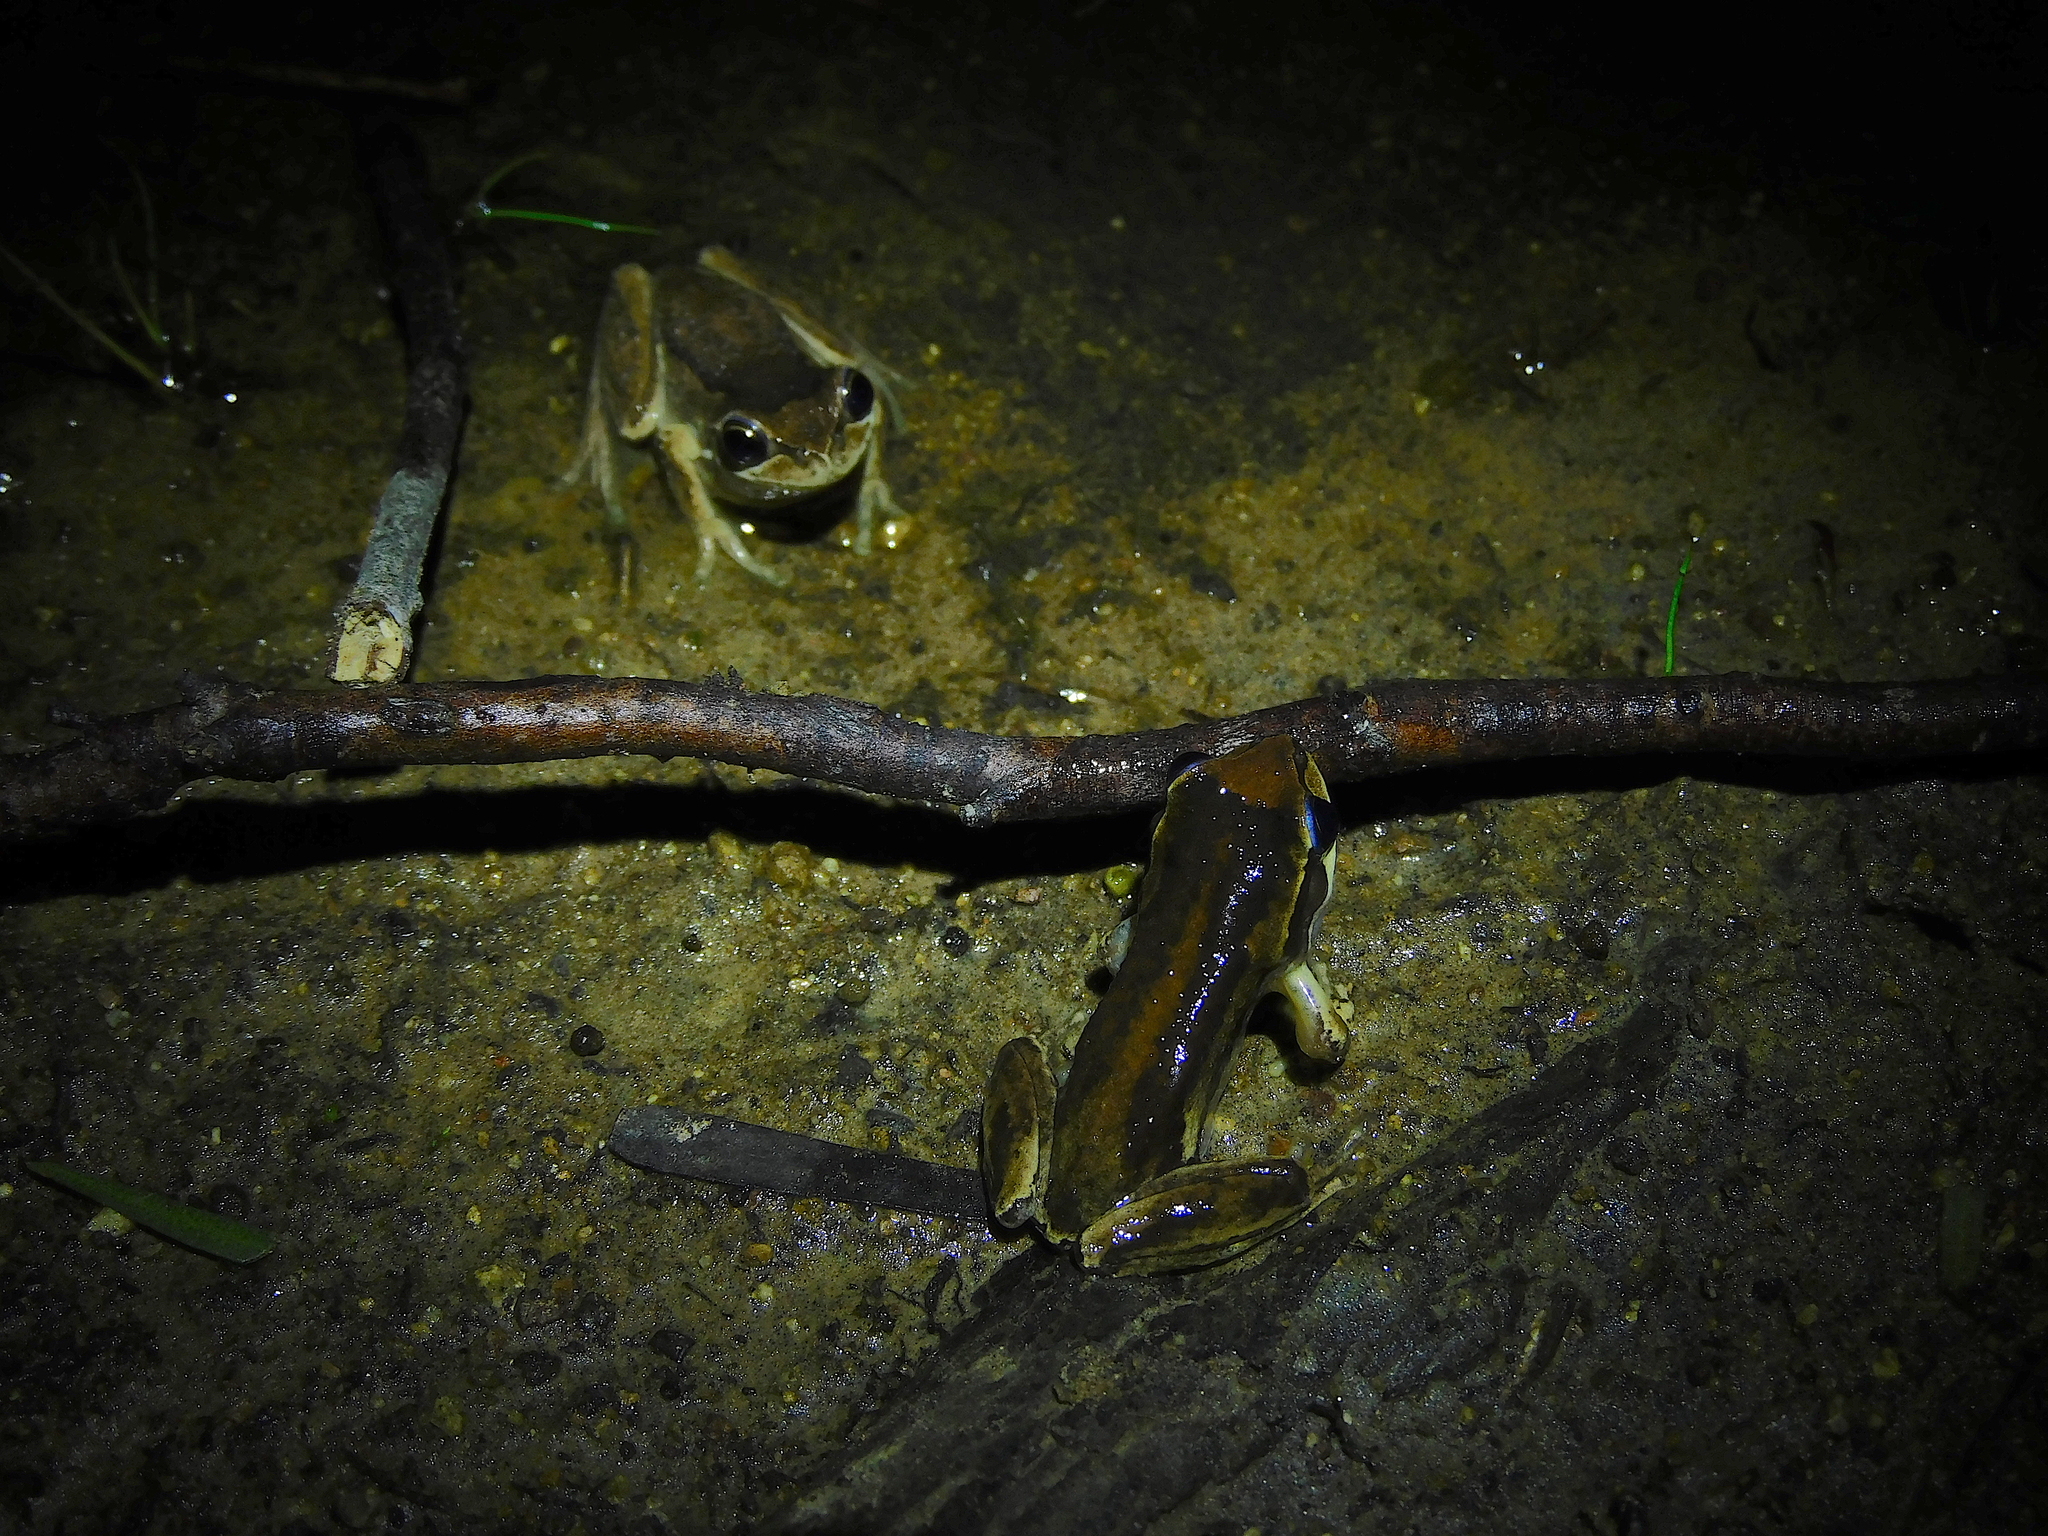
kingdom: Animalia
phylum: Chordata
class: Amphibia
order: Anura
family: Pelodryadidae
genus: Litoria
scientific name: Litoria ewingii
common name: Southern brown tree frog
